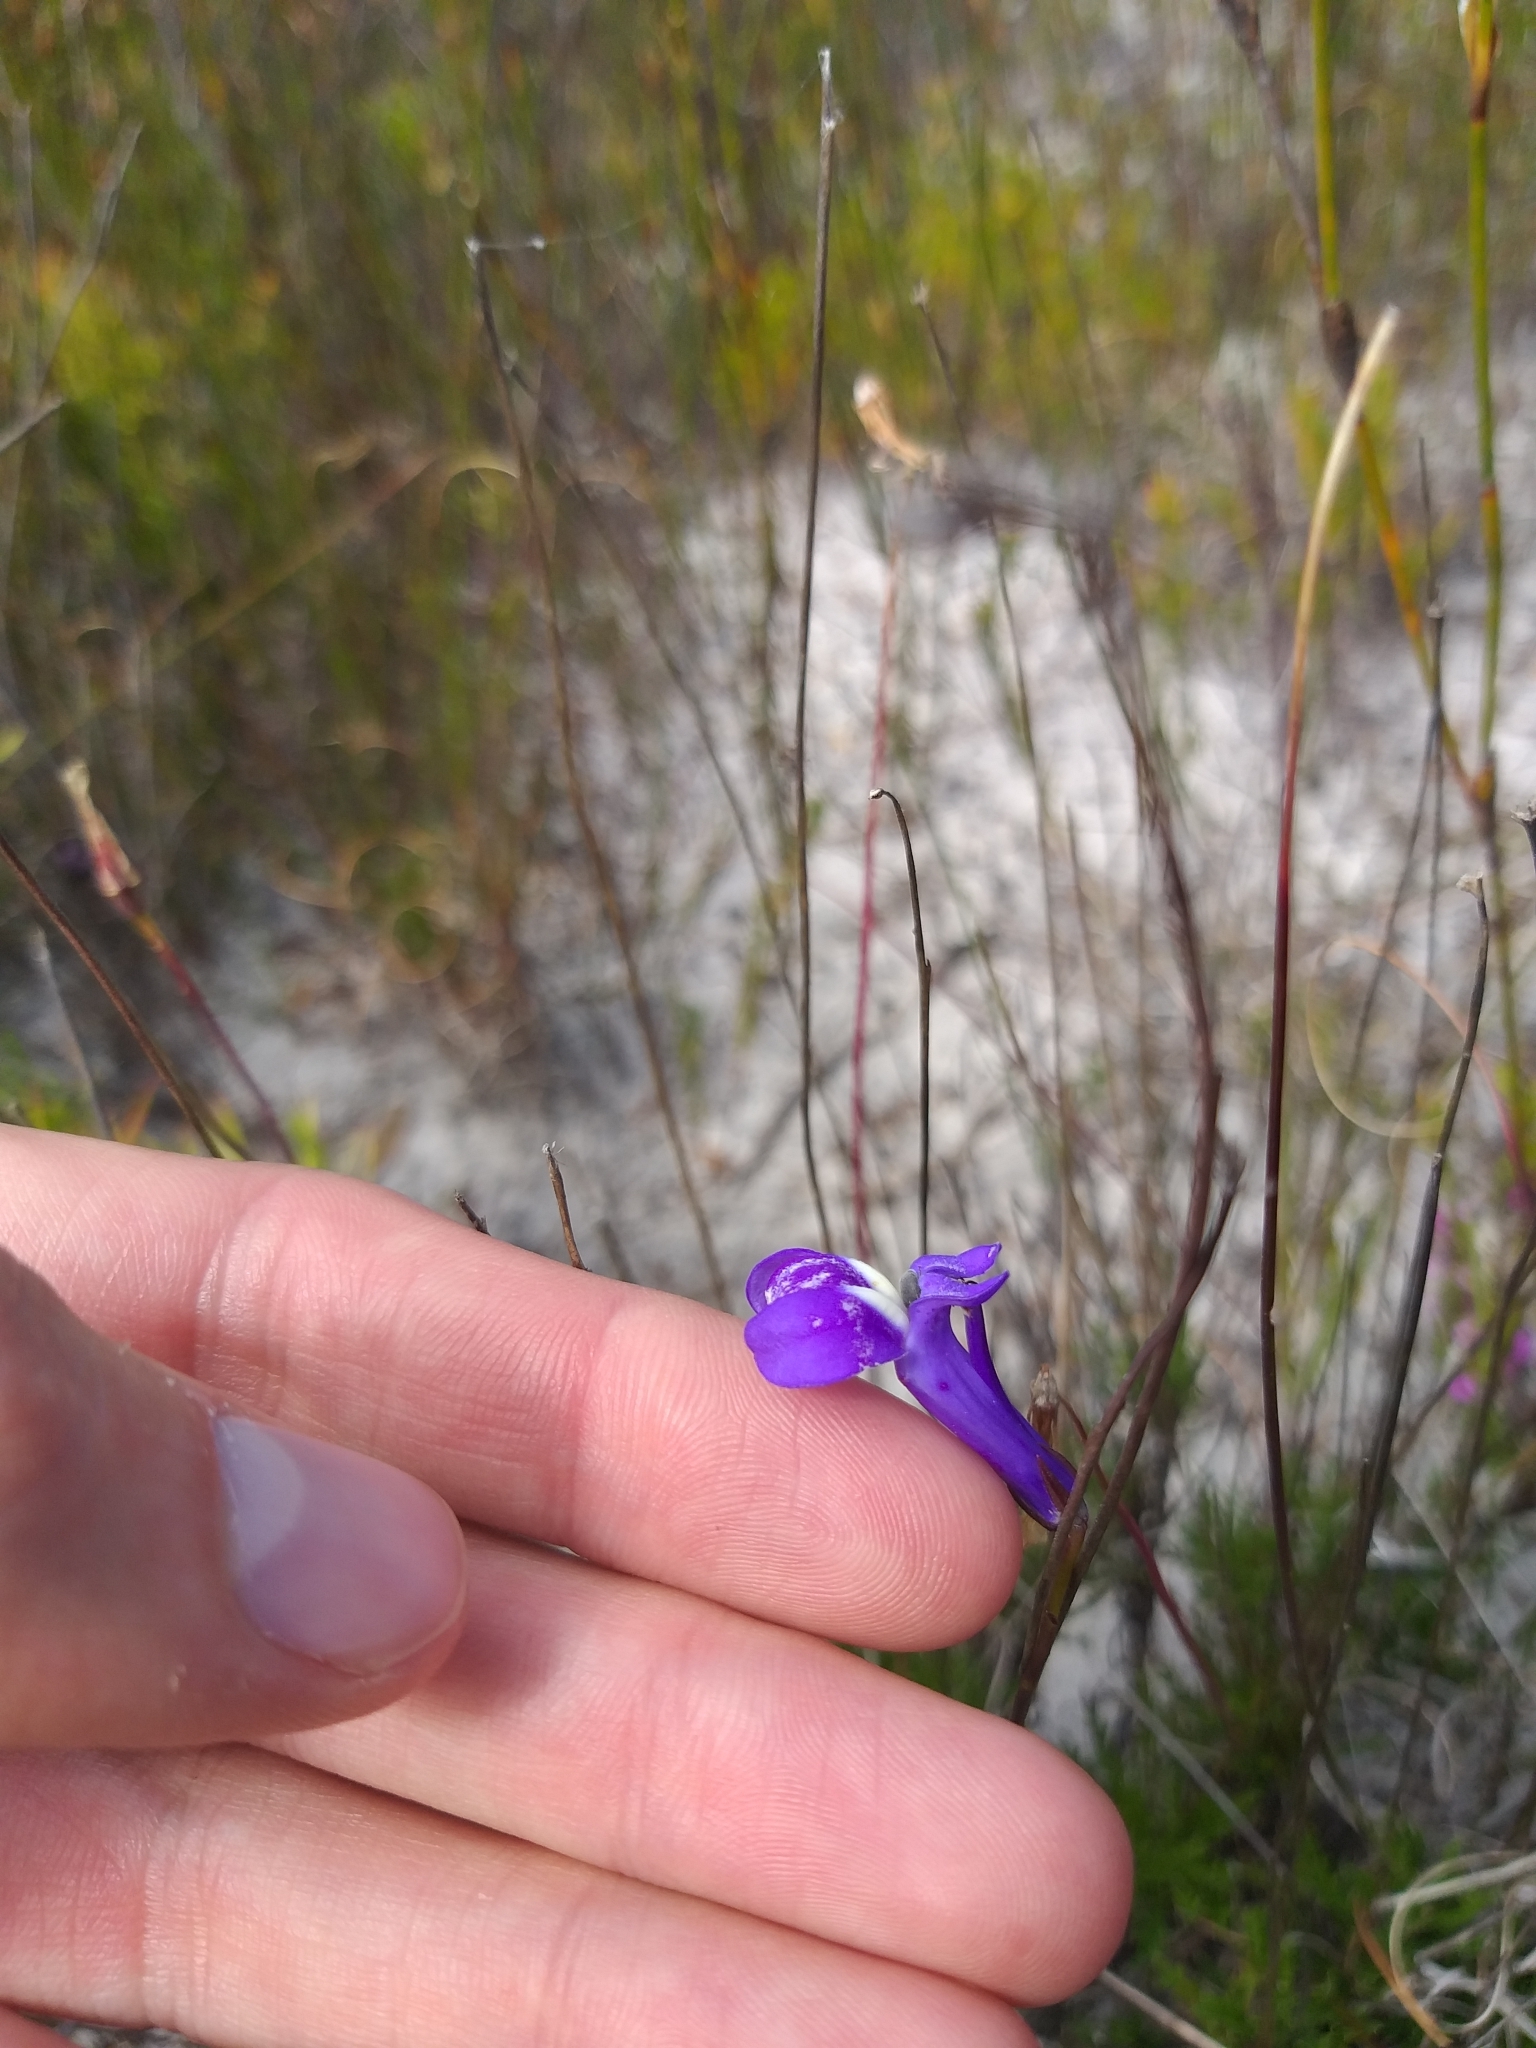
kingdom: Plantae
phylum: Tracheophyta
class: Magnoliopsida
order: Asterales
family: Campanulaceae
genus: Lobelia
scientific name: Lobelia coronopifolia
